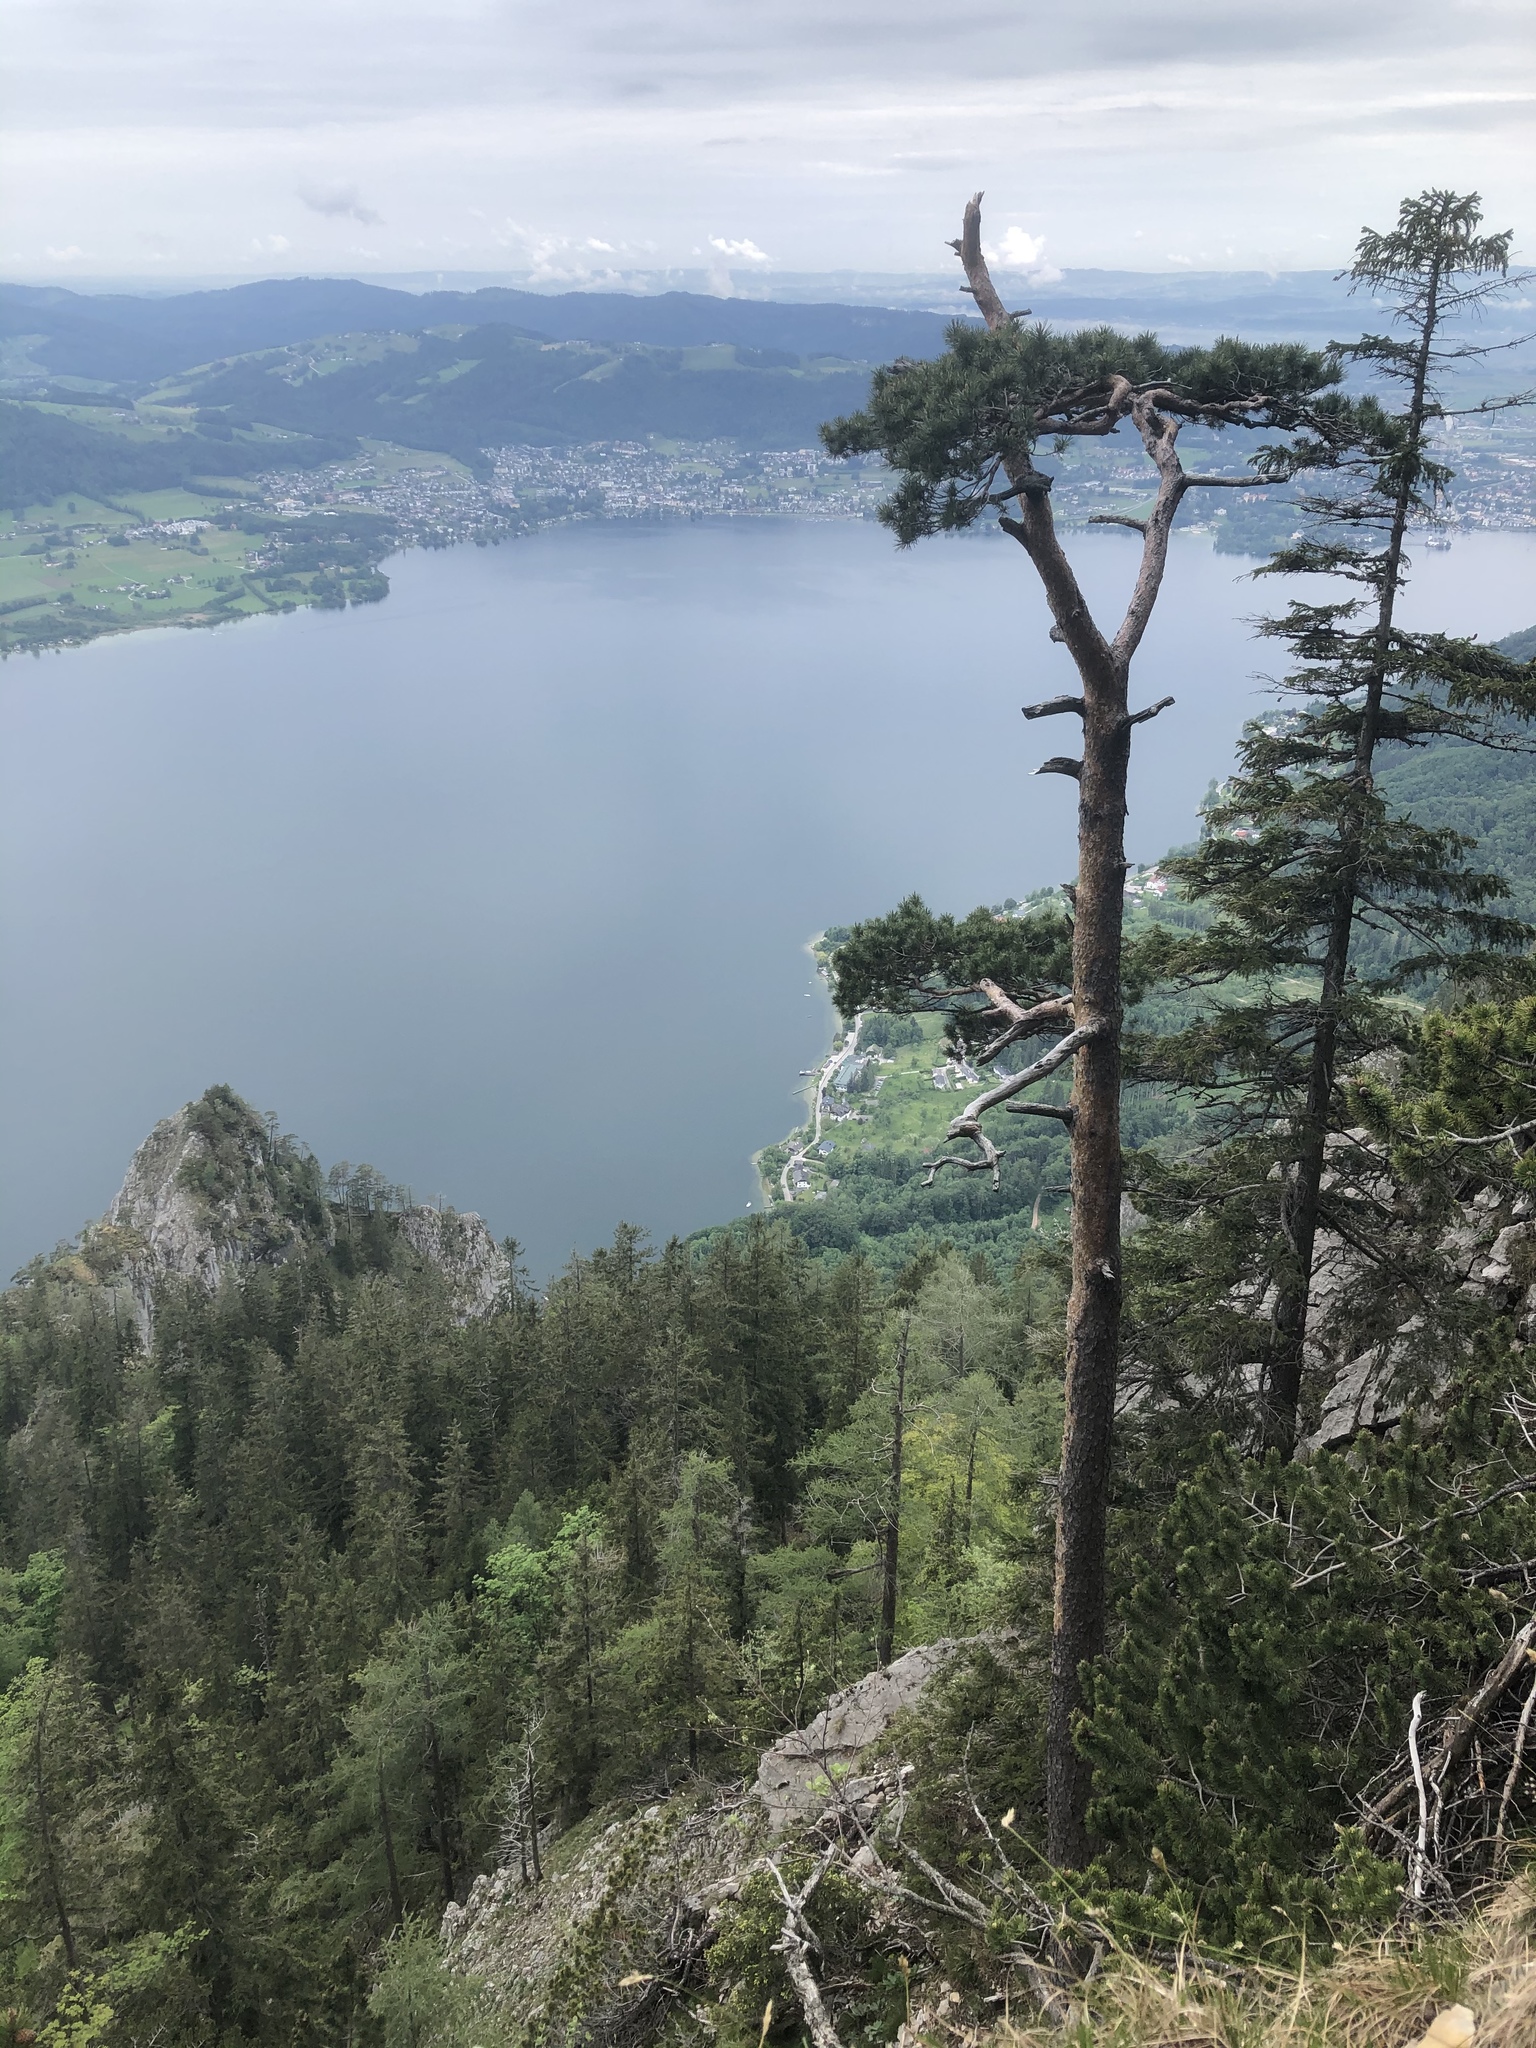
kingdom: Plantae
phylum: Tracheophyta
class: Pinopsida
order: Pinales
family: Pinaceae
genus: Pinus
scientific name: Pinus sylvestris
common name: Scots pine
